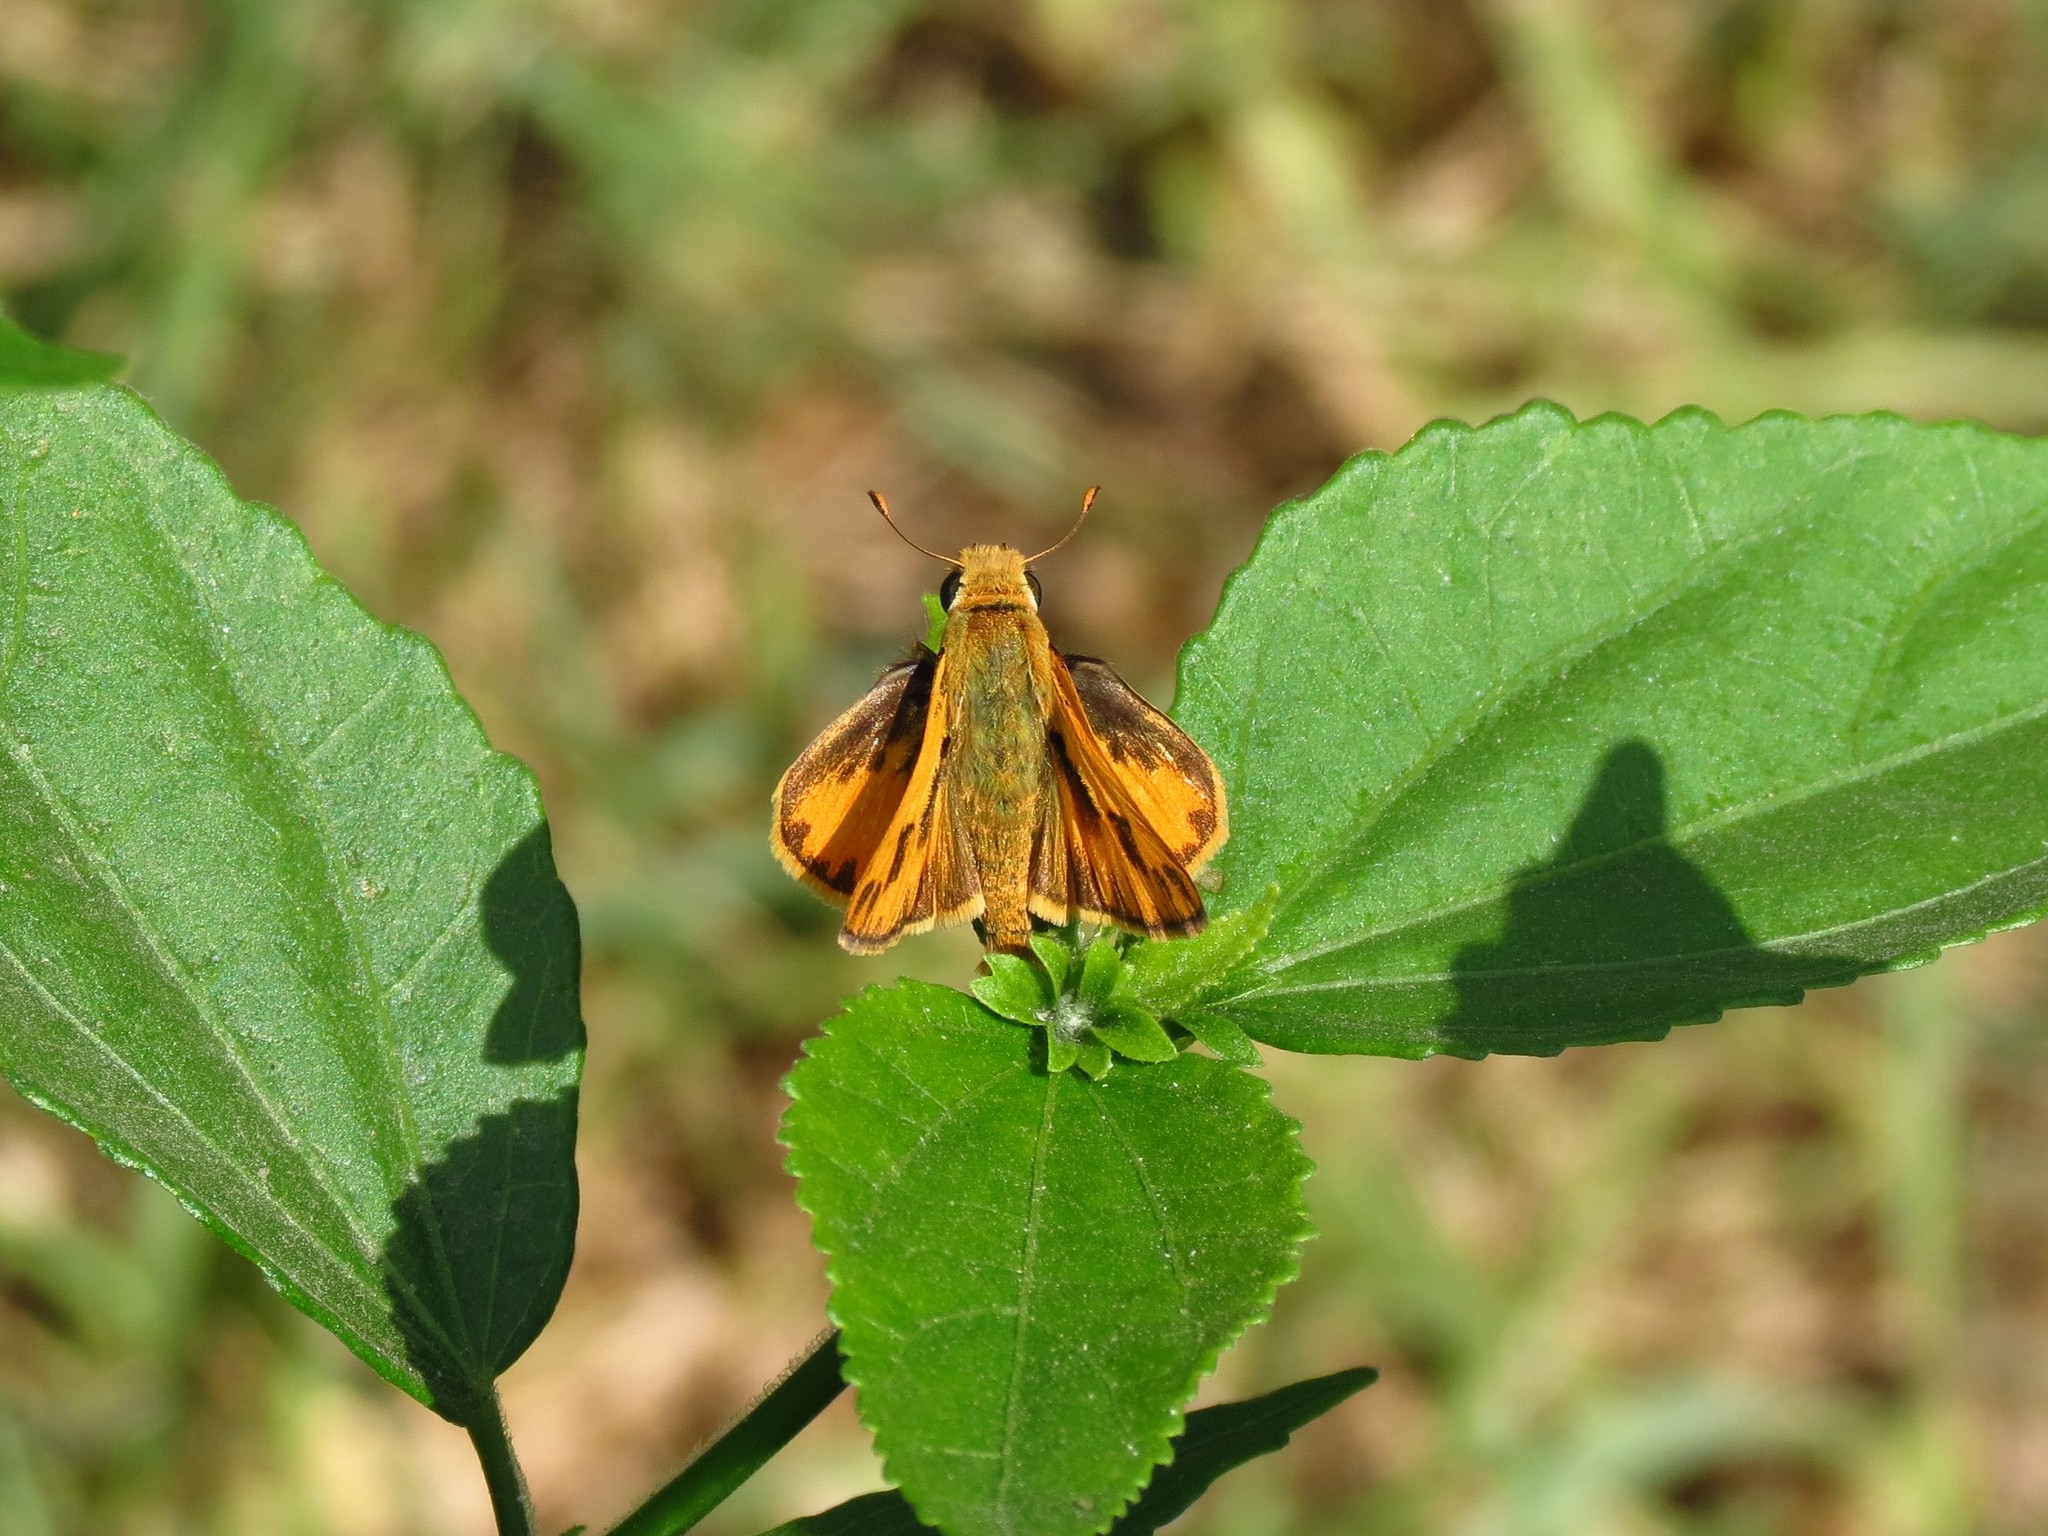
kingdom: Animalia
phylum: Arthropoda
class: Insecta
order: Lepidoptera
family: Hesperiidae
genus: Hylephila
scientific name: Hylephila phyleus
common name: Fiery skipper
